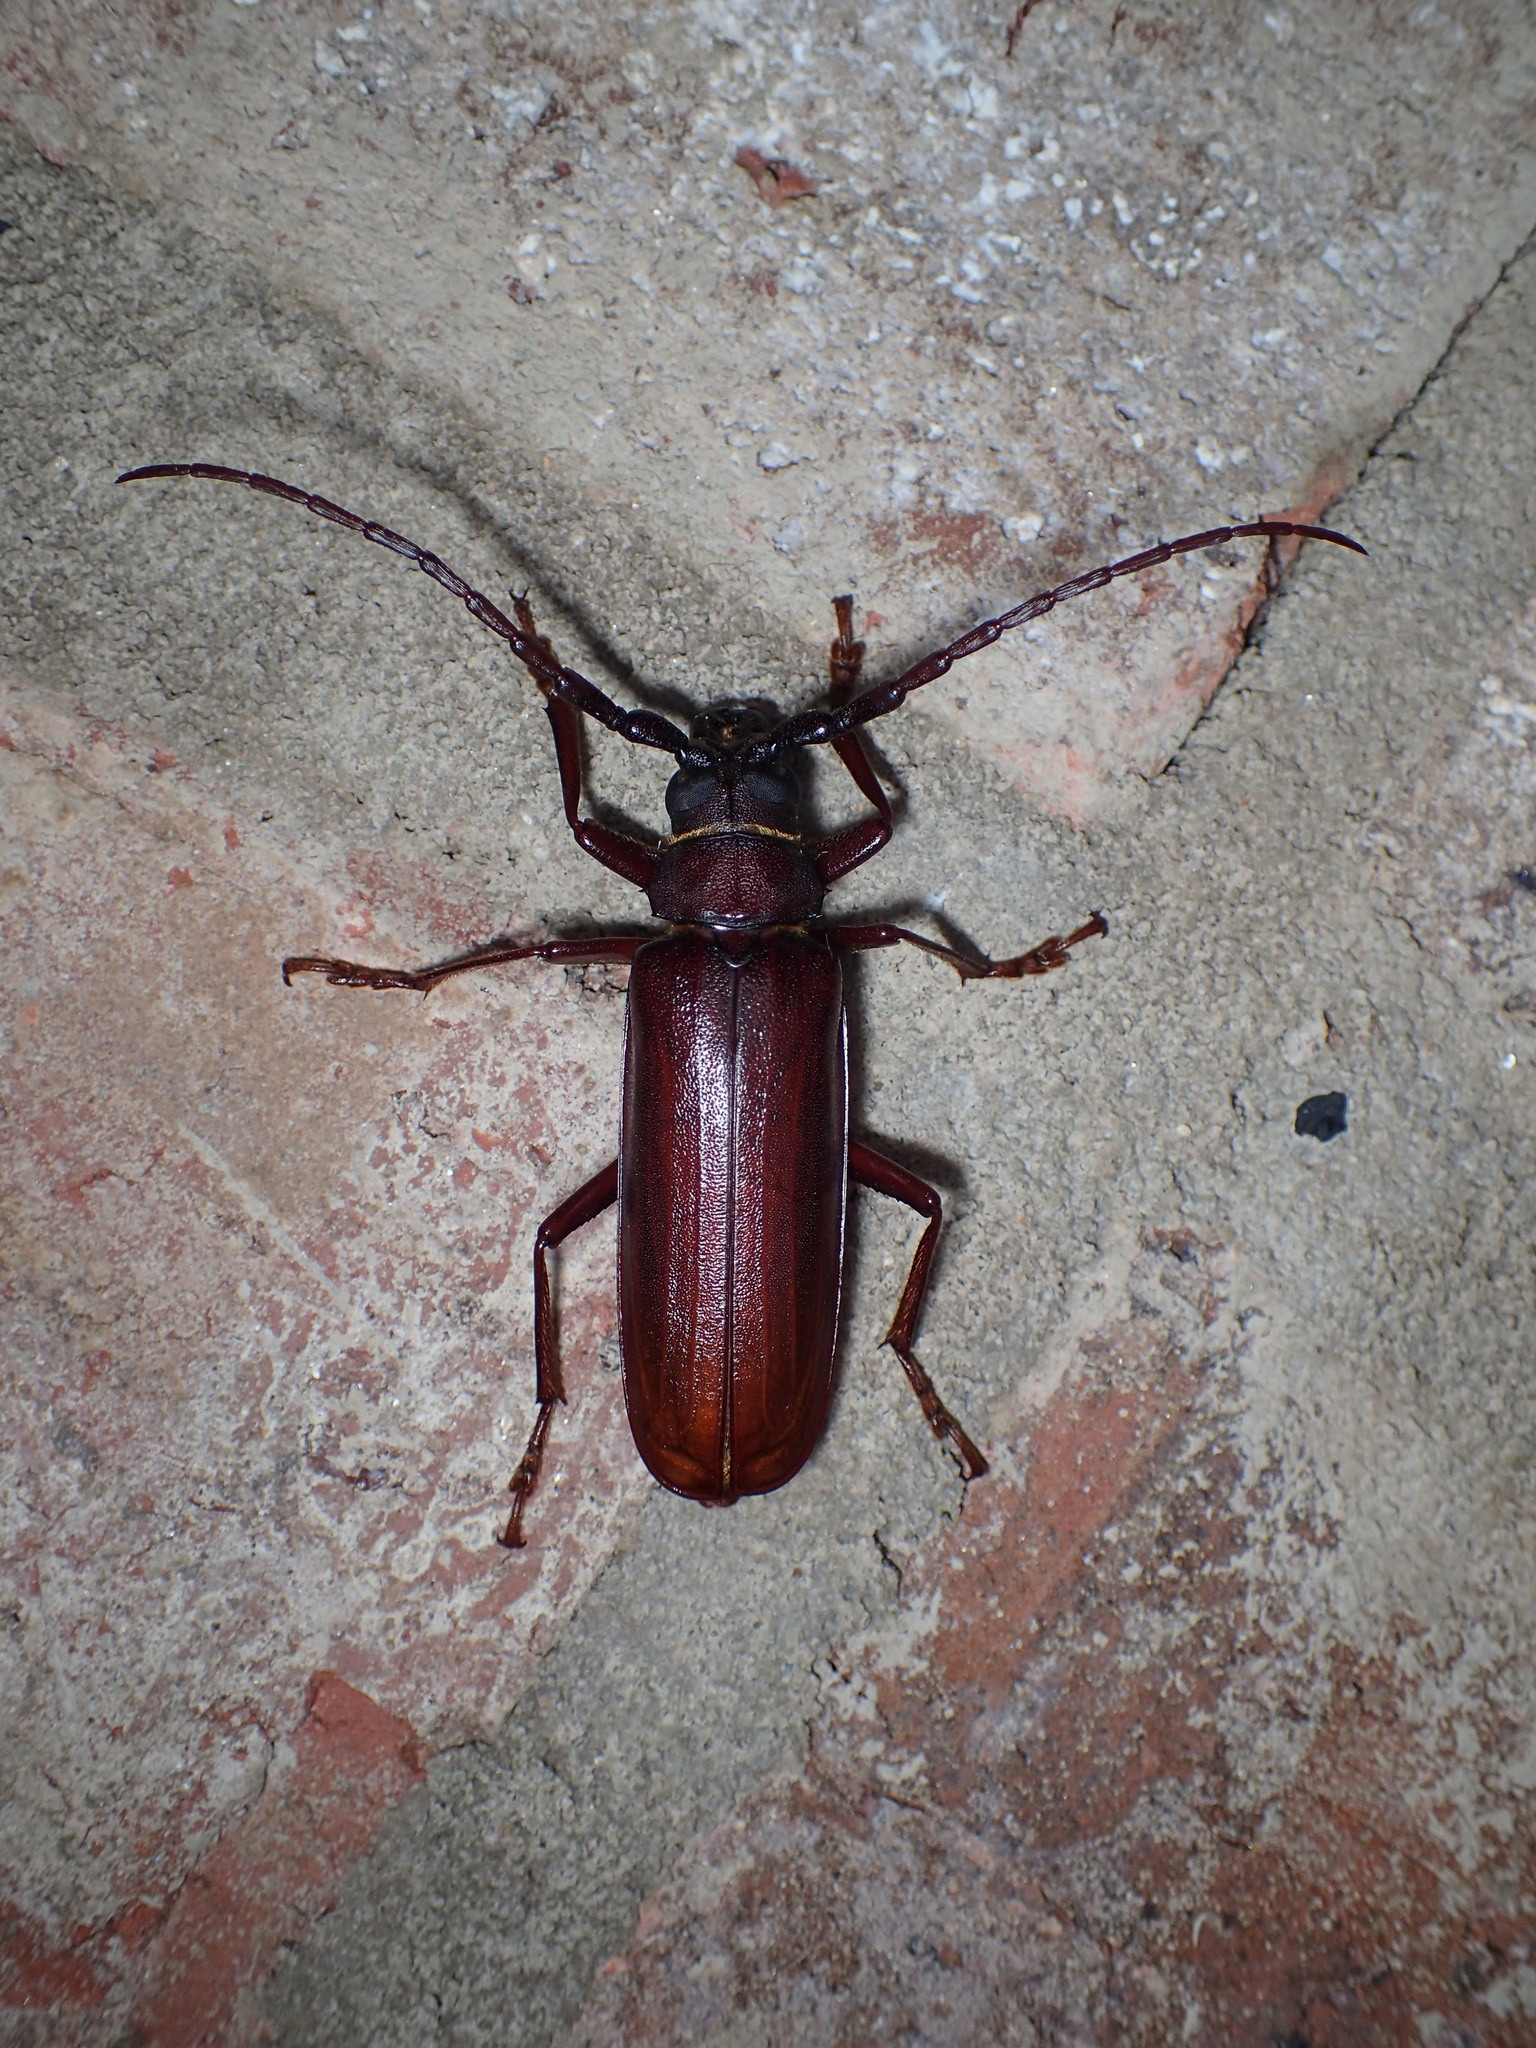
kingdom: Animalia
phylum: Arthropoda
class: Insecta
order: Coleoptera
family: Cerambycidae
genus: Orthosoma
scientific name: Orthosoma brunneum
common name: Brown prionid beetle
